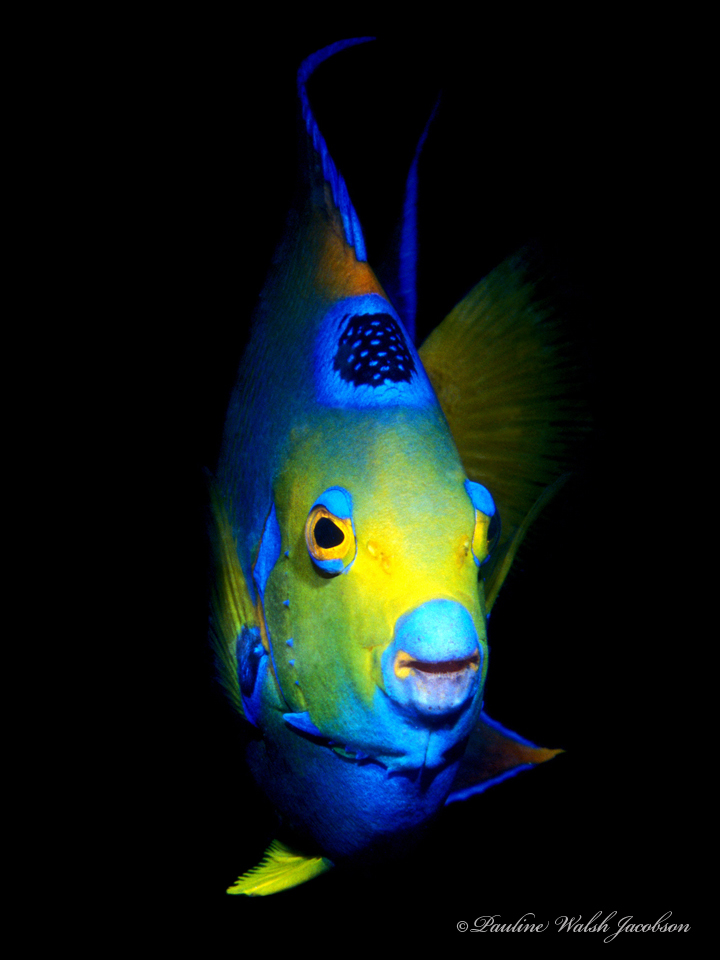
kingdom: Animalia
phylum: Chordata
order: Perciformes
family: Pomacanthidae
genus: Holacanthus
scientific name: Holacanthus ciliaris
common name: Queen angelfish
